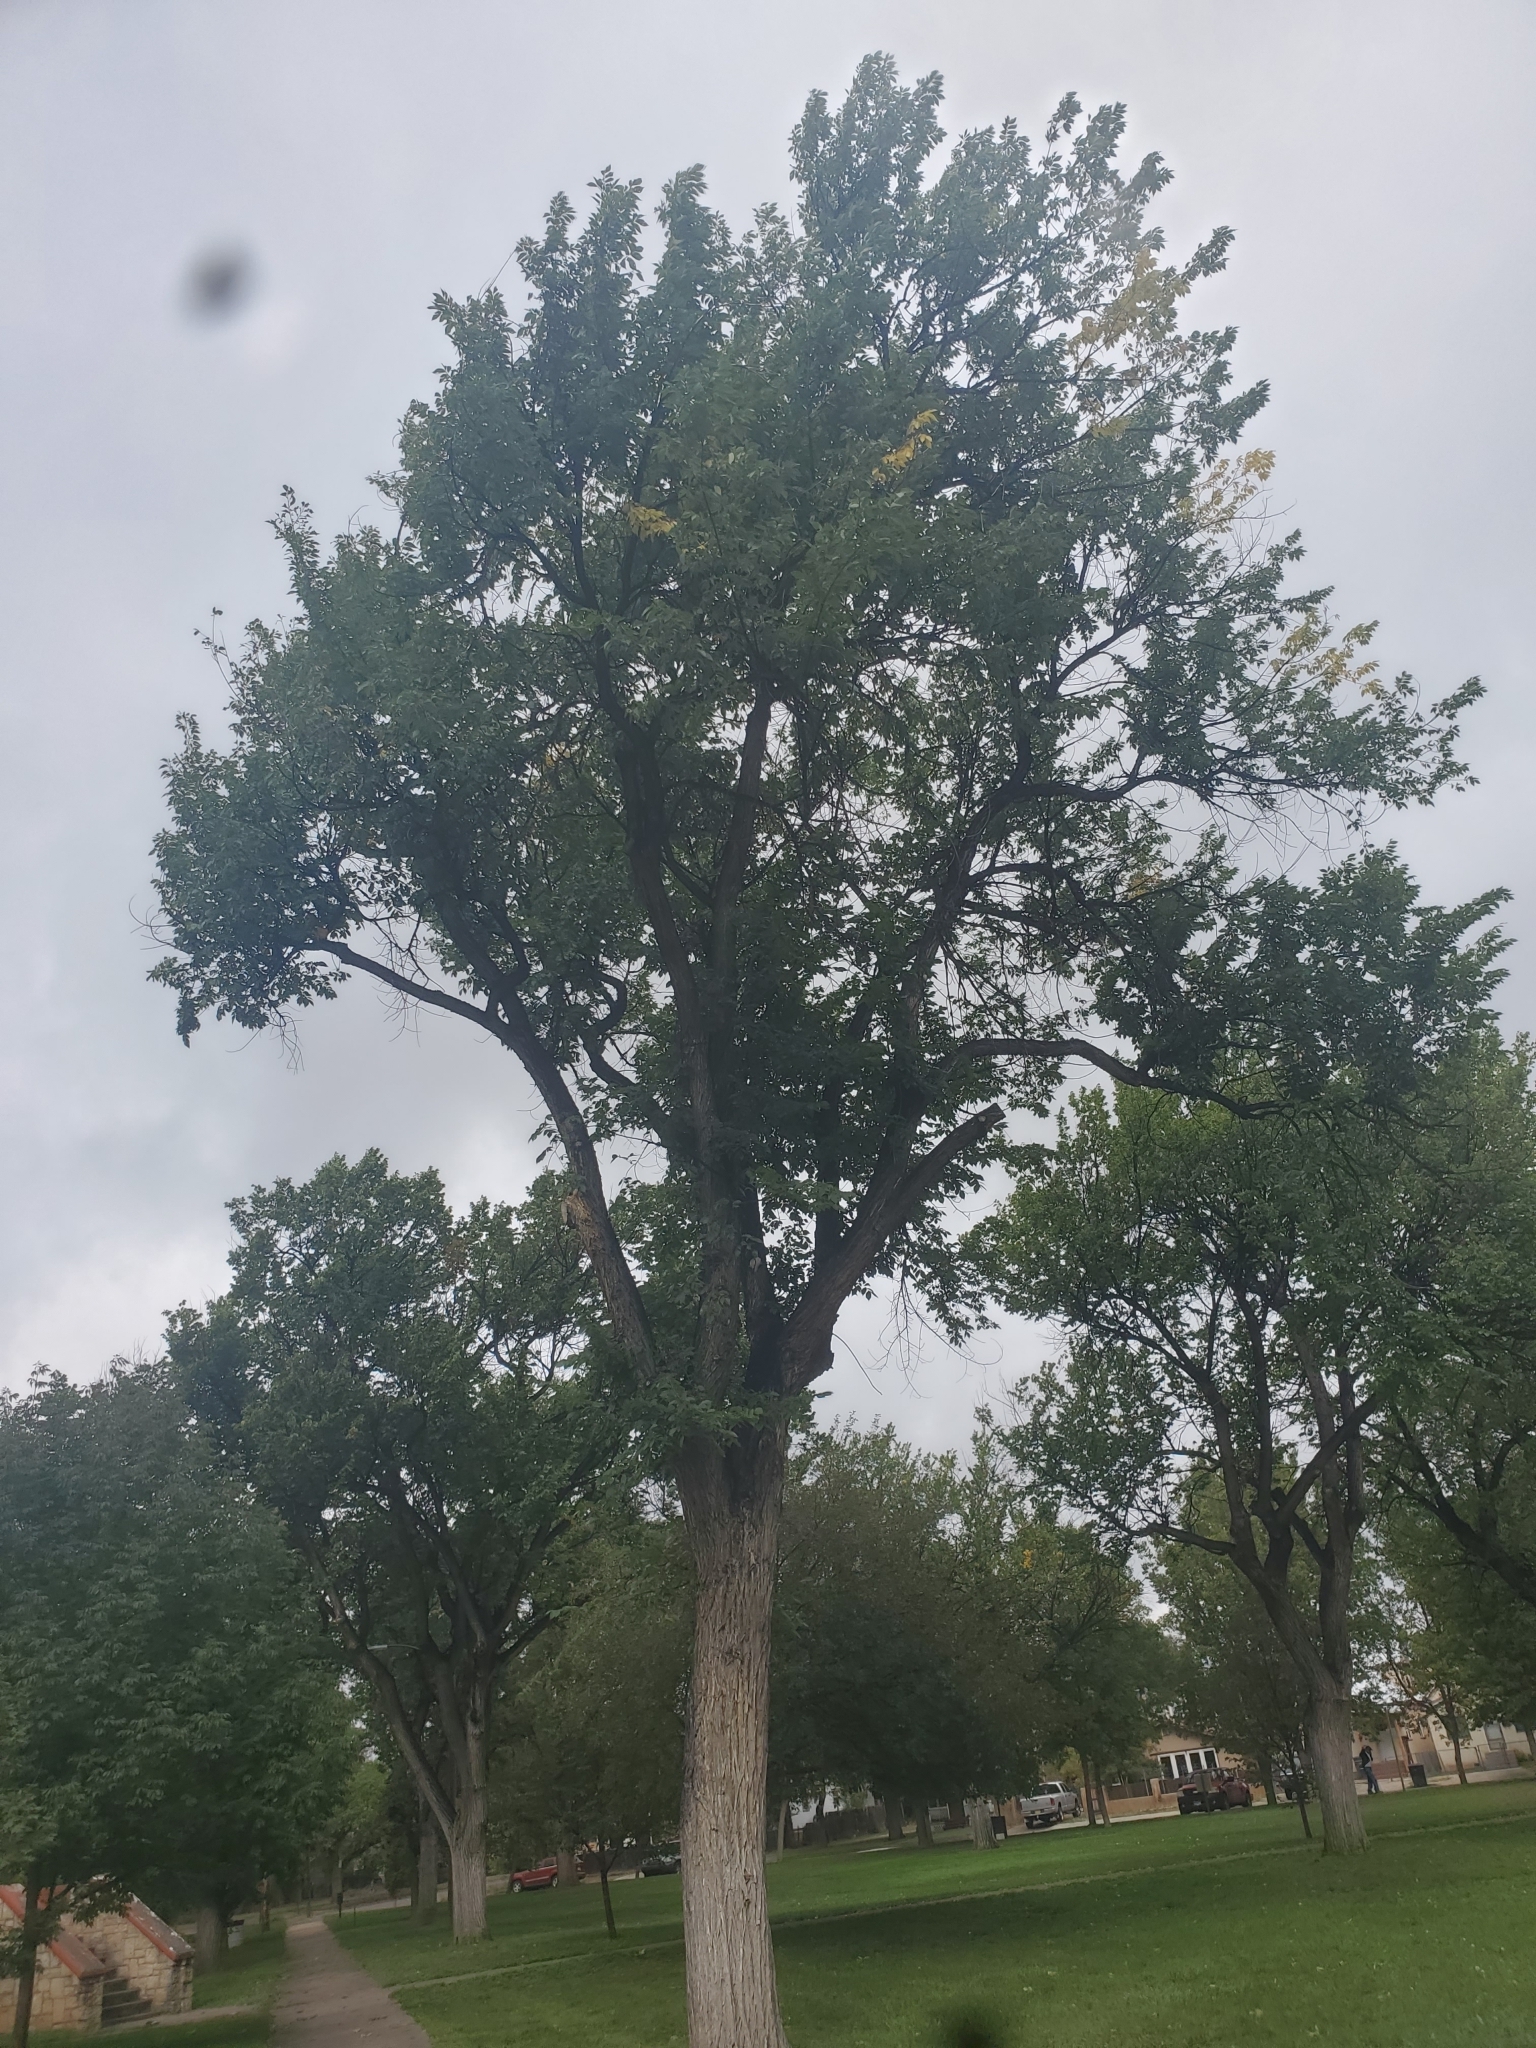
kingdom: Plantae
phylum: Tracheophyta
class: Magnoliopsida
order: Rosales
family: Ulmaceae
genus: Ulmus
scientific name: Ulmus americana
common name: American elm
